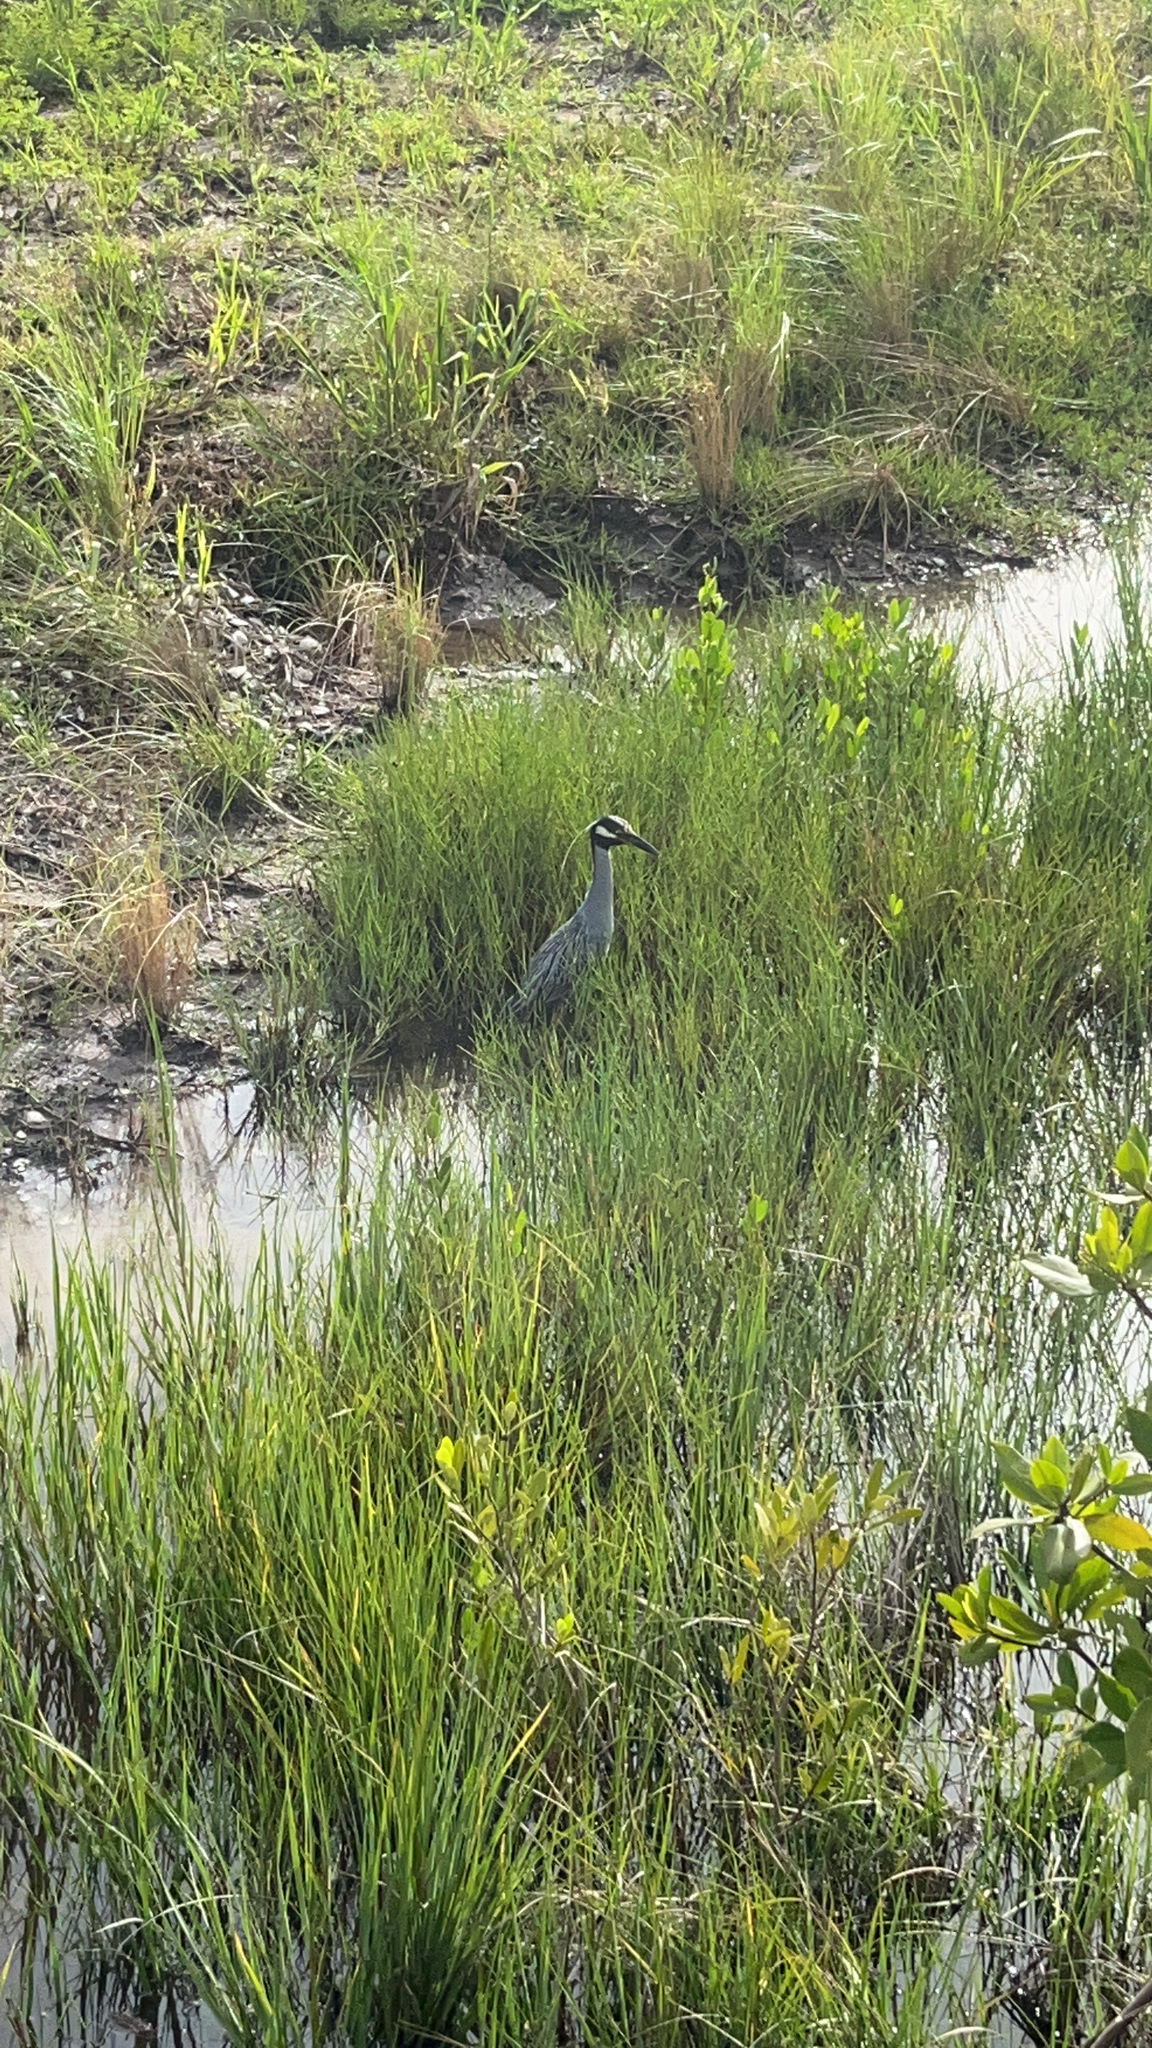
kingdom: Animalia
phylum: Chordata
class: Aves
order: Pelecaniformes
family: Ardeidae
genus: Nyctanassa
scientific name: Nyctanassa violacea
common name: Yellow-crowned night heron
